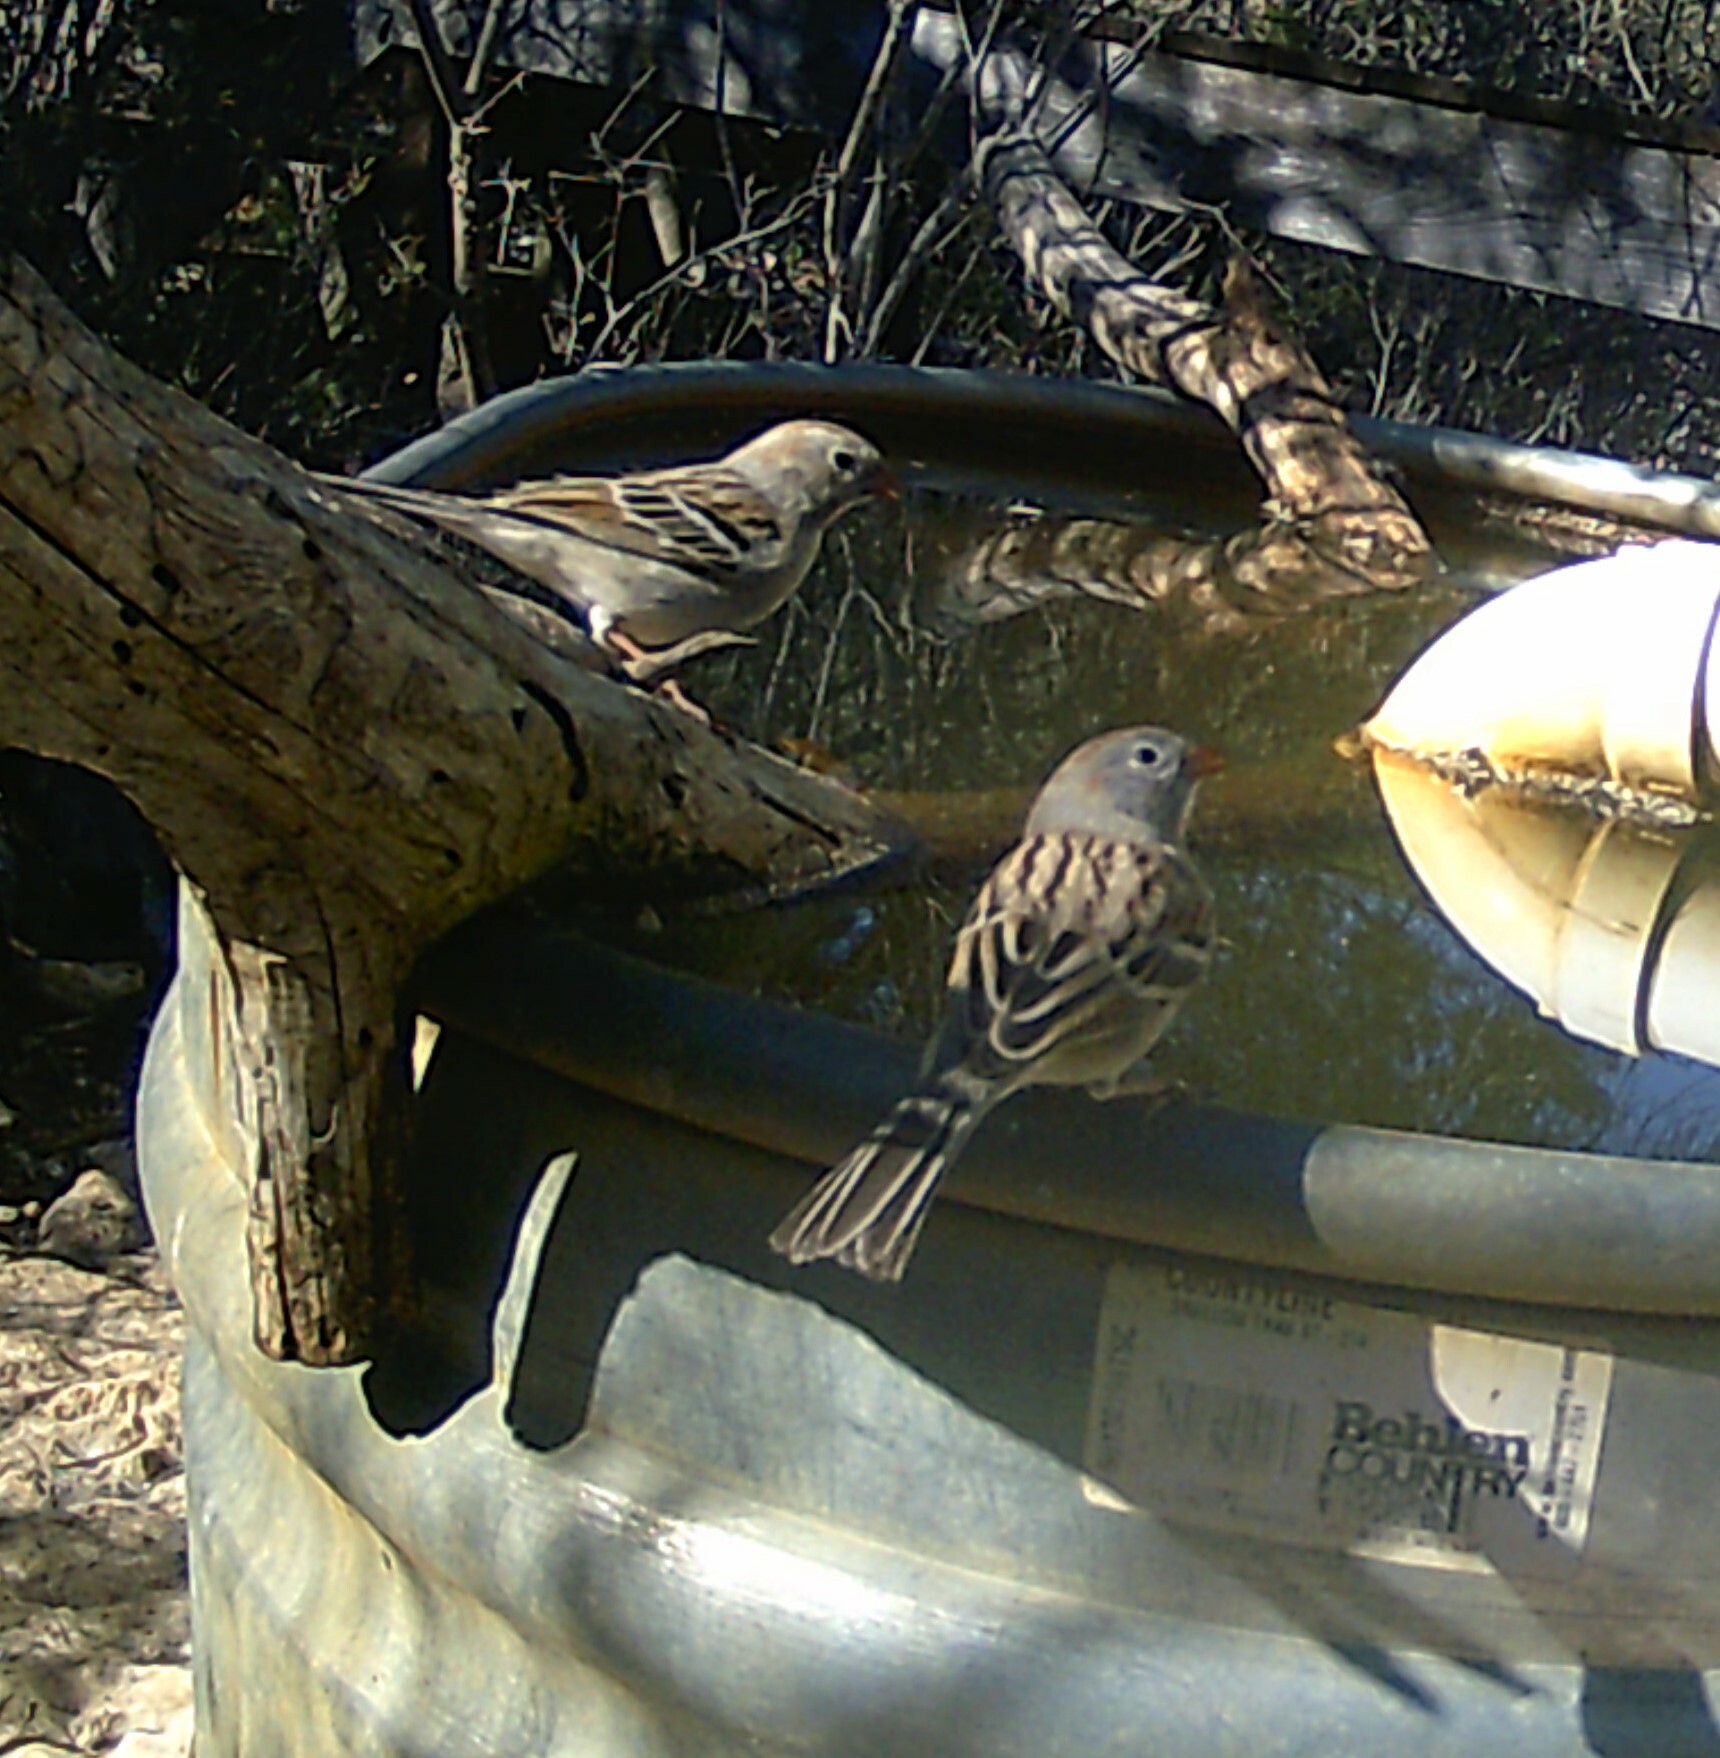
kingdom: Animalia
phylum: Chordata
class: Aves
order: Passeriformes
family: Passerellidae
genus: Spizella
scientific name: Spizella pusilla
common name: Field sparrow
